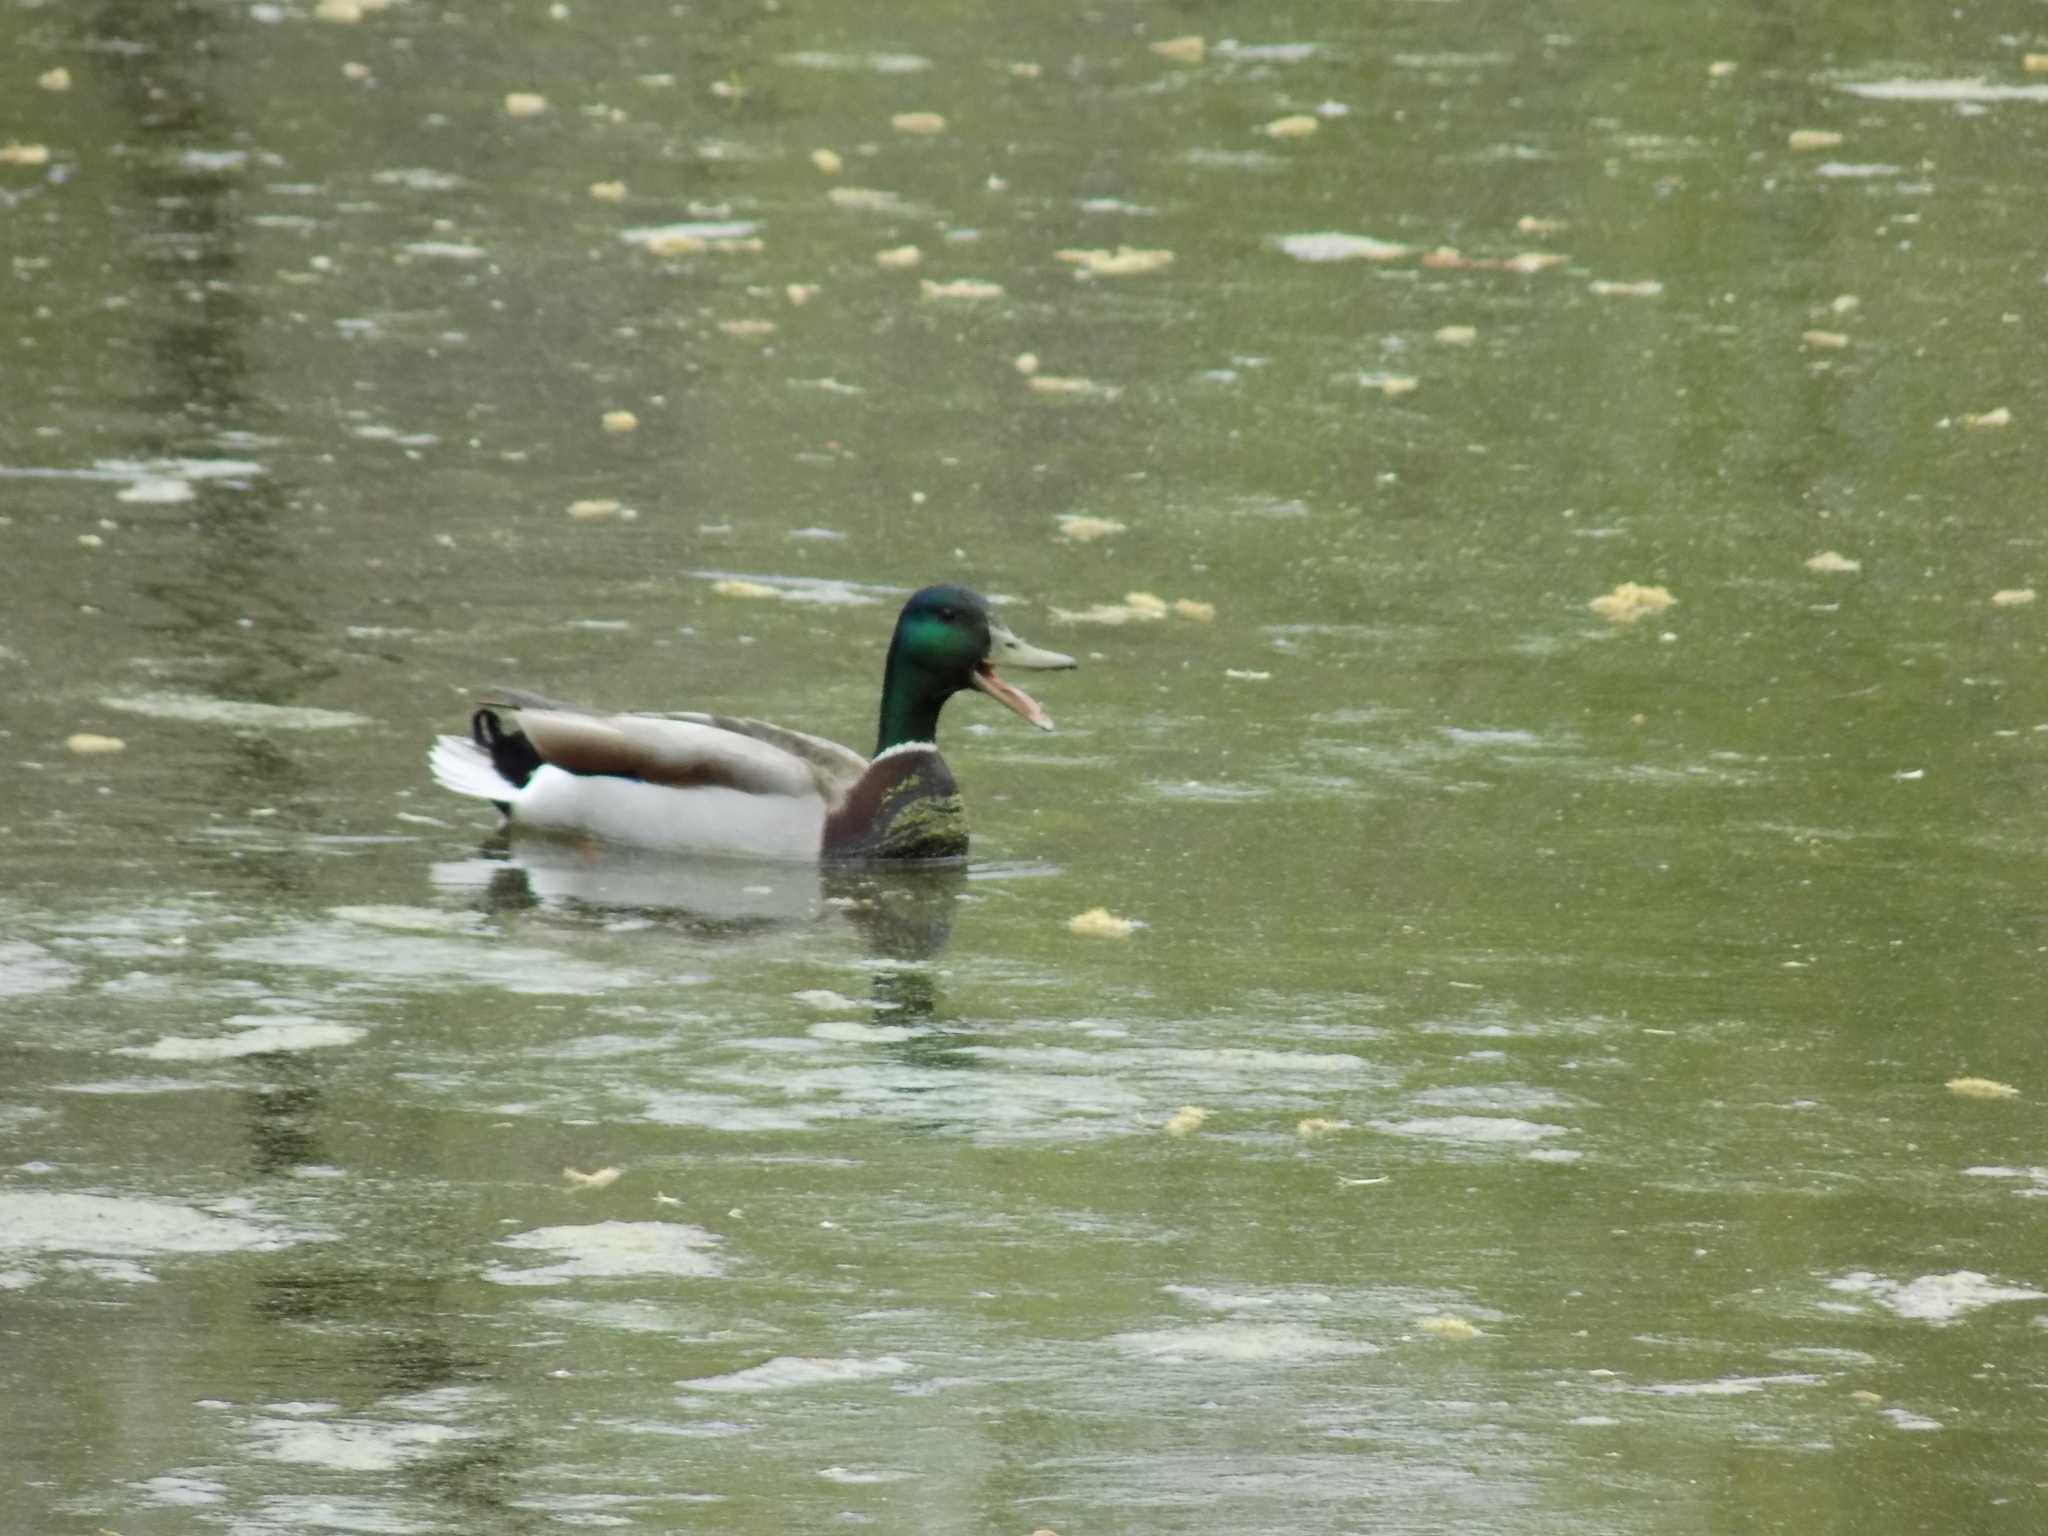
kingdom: Animalia
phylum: Chordata
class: Aves
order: Anseriformes
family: Anatidae
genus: Anas
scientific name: Anas platyrhynchos
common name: Mallard
